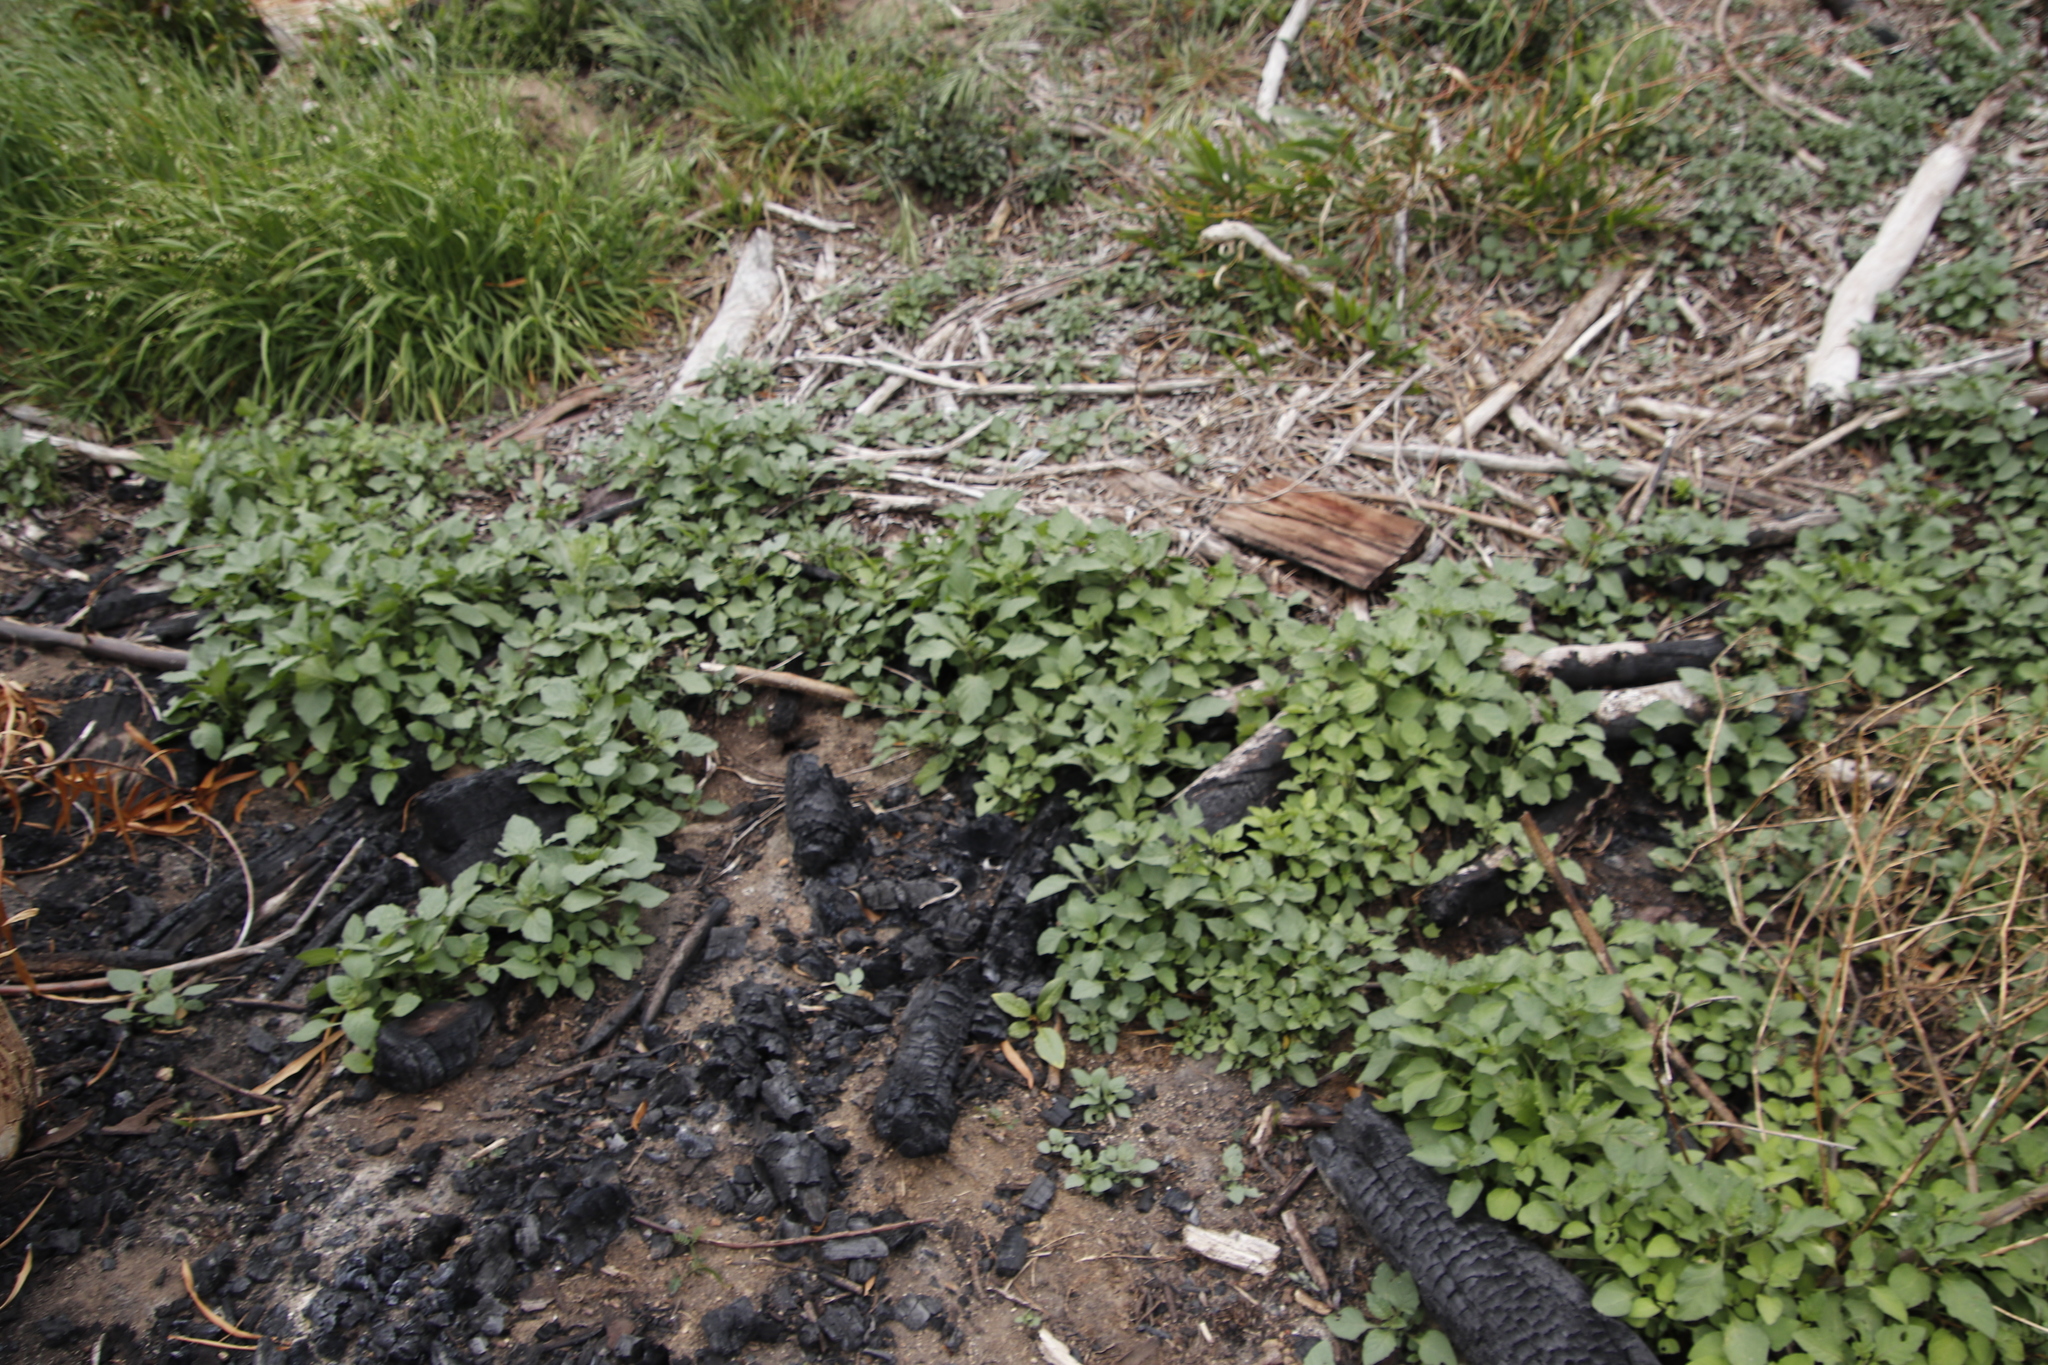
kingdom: Plantae
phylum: Tracheophyta
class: Magnoliopsida
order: Solanales
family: Solanaceae
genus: Solanum
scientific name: Solanum nigrum
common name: Black nightshade
